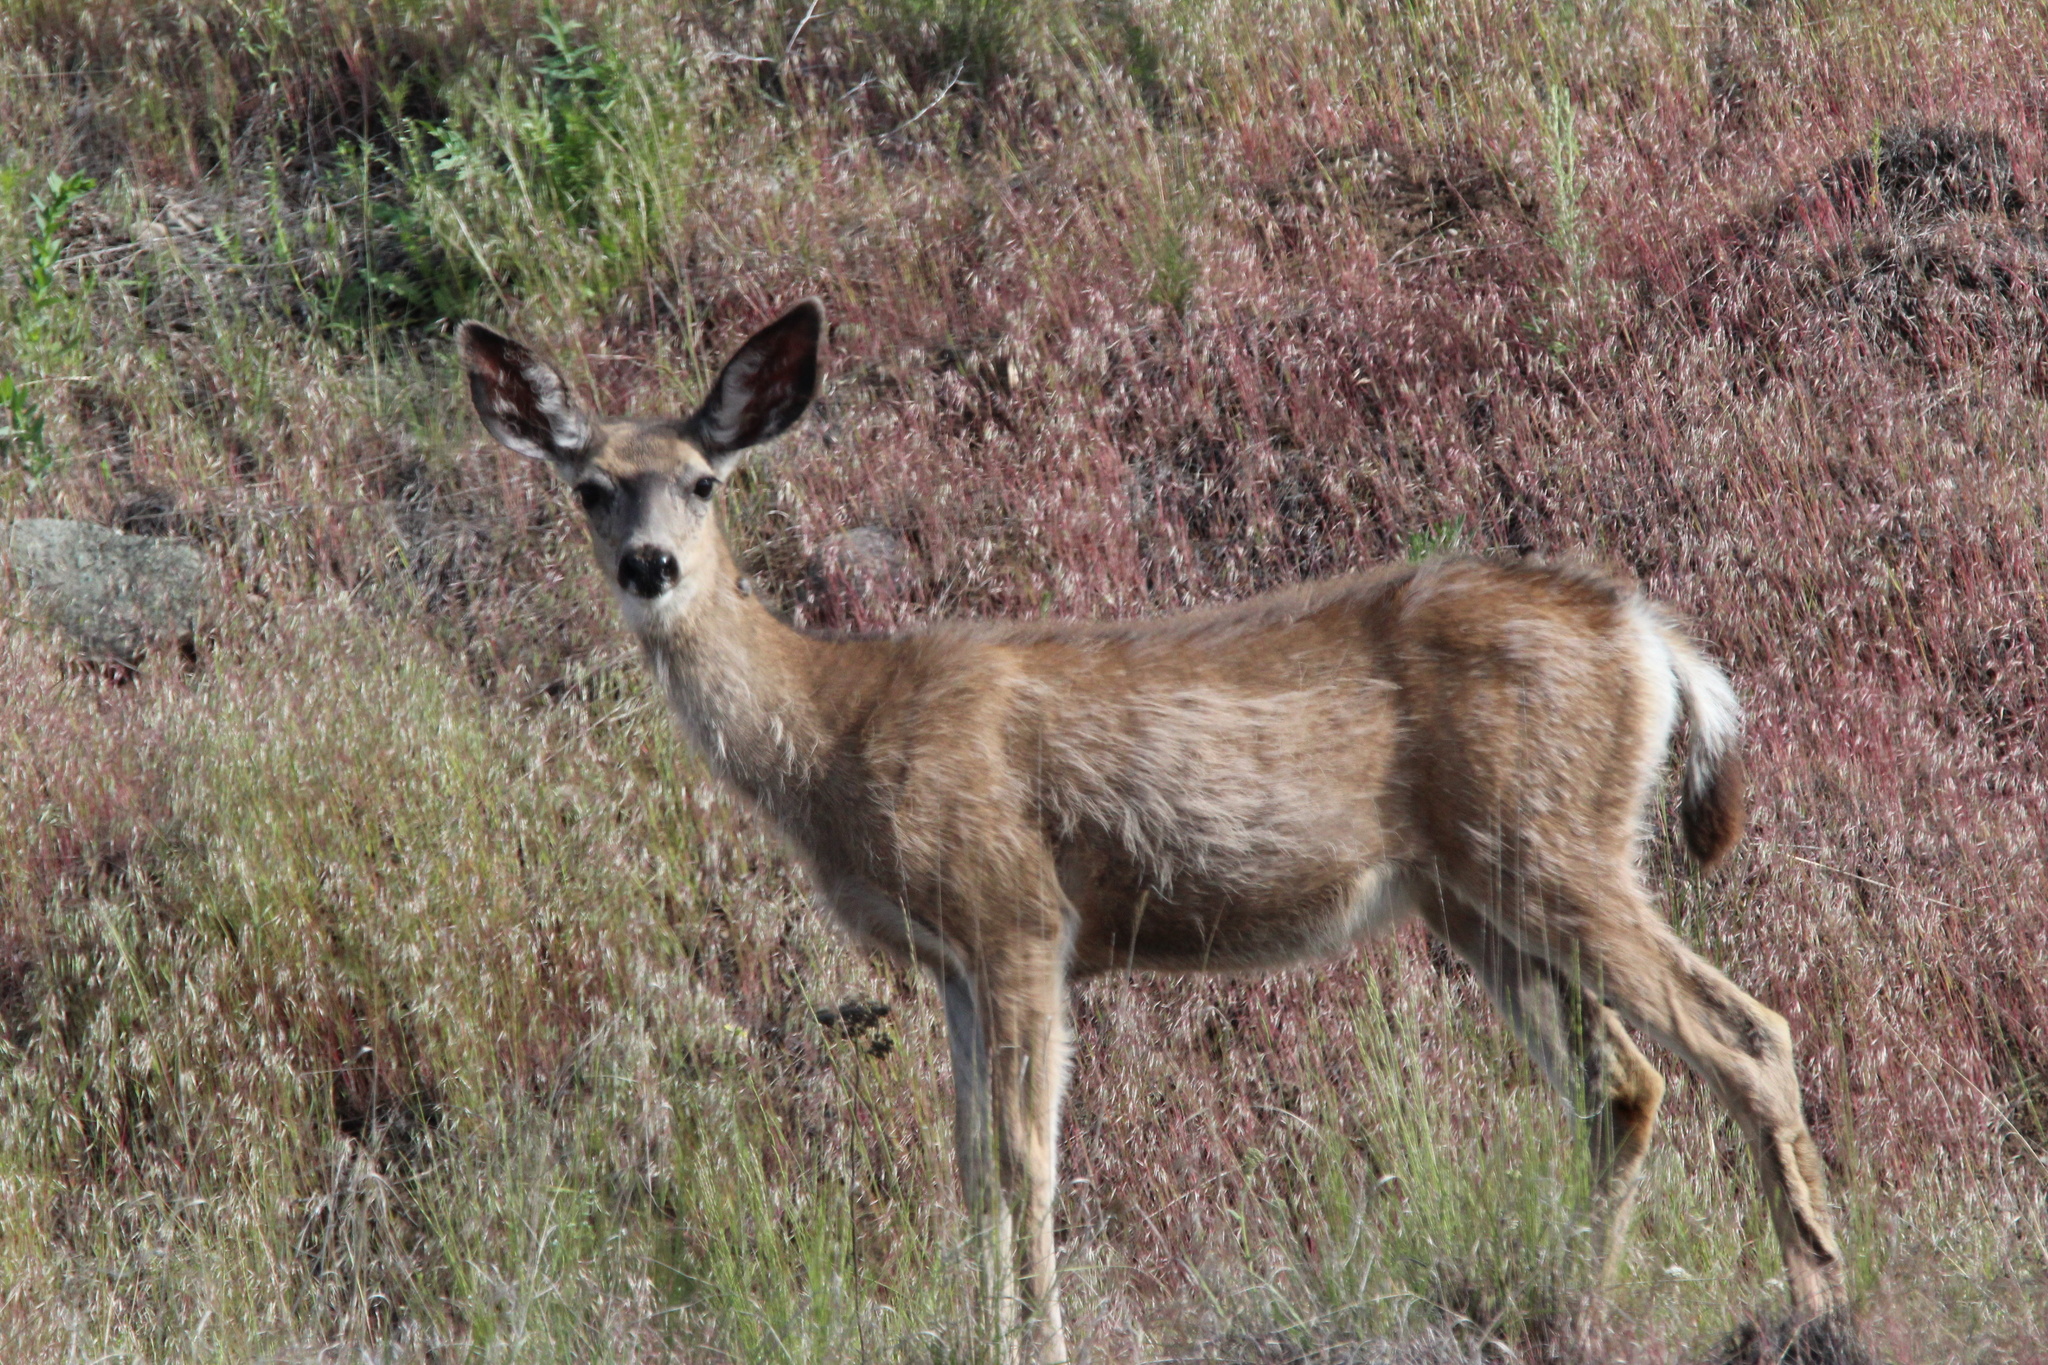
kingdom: Animalia
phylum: Chordata
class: Mammalia
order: Artiodactyla
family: Cervidae
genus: Odocoileus
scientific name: Odocoileus hemionus
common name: Mule deer
